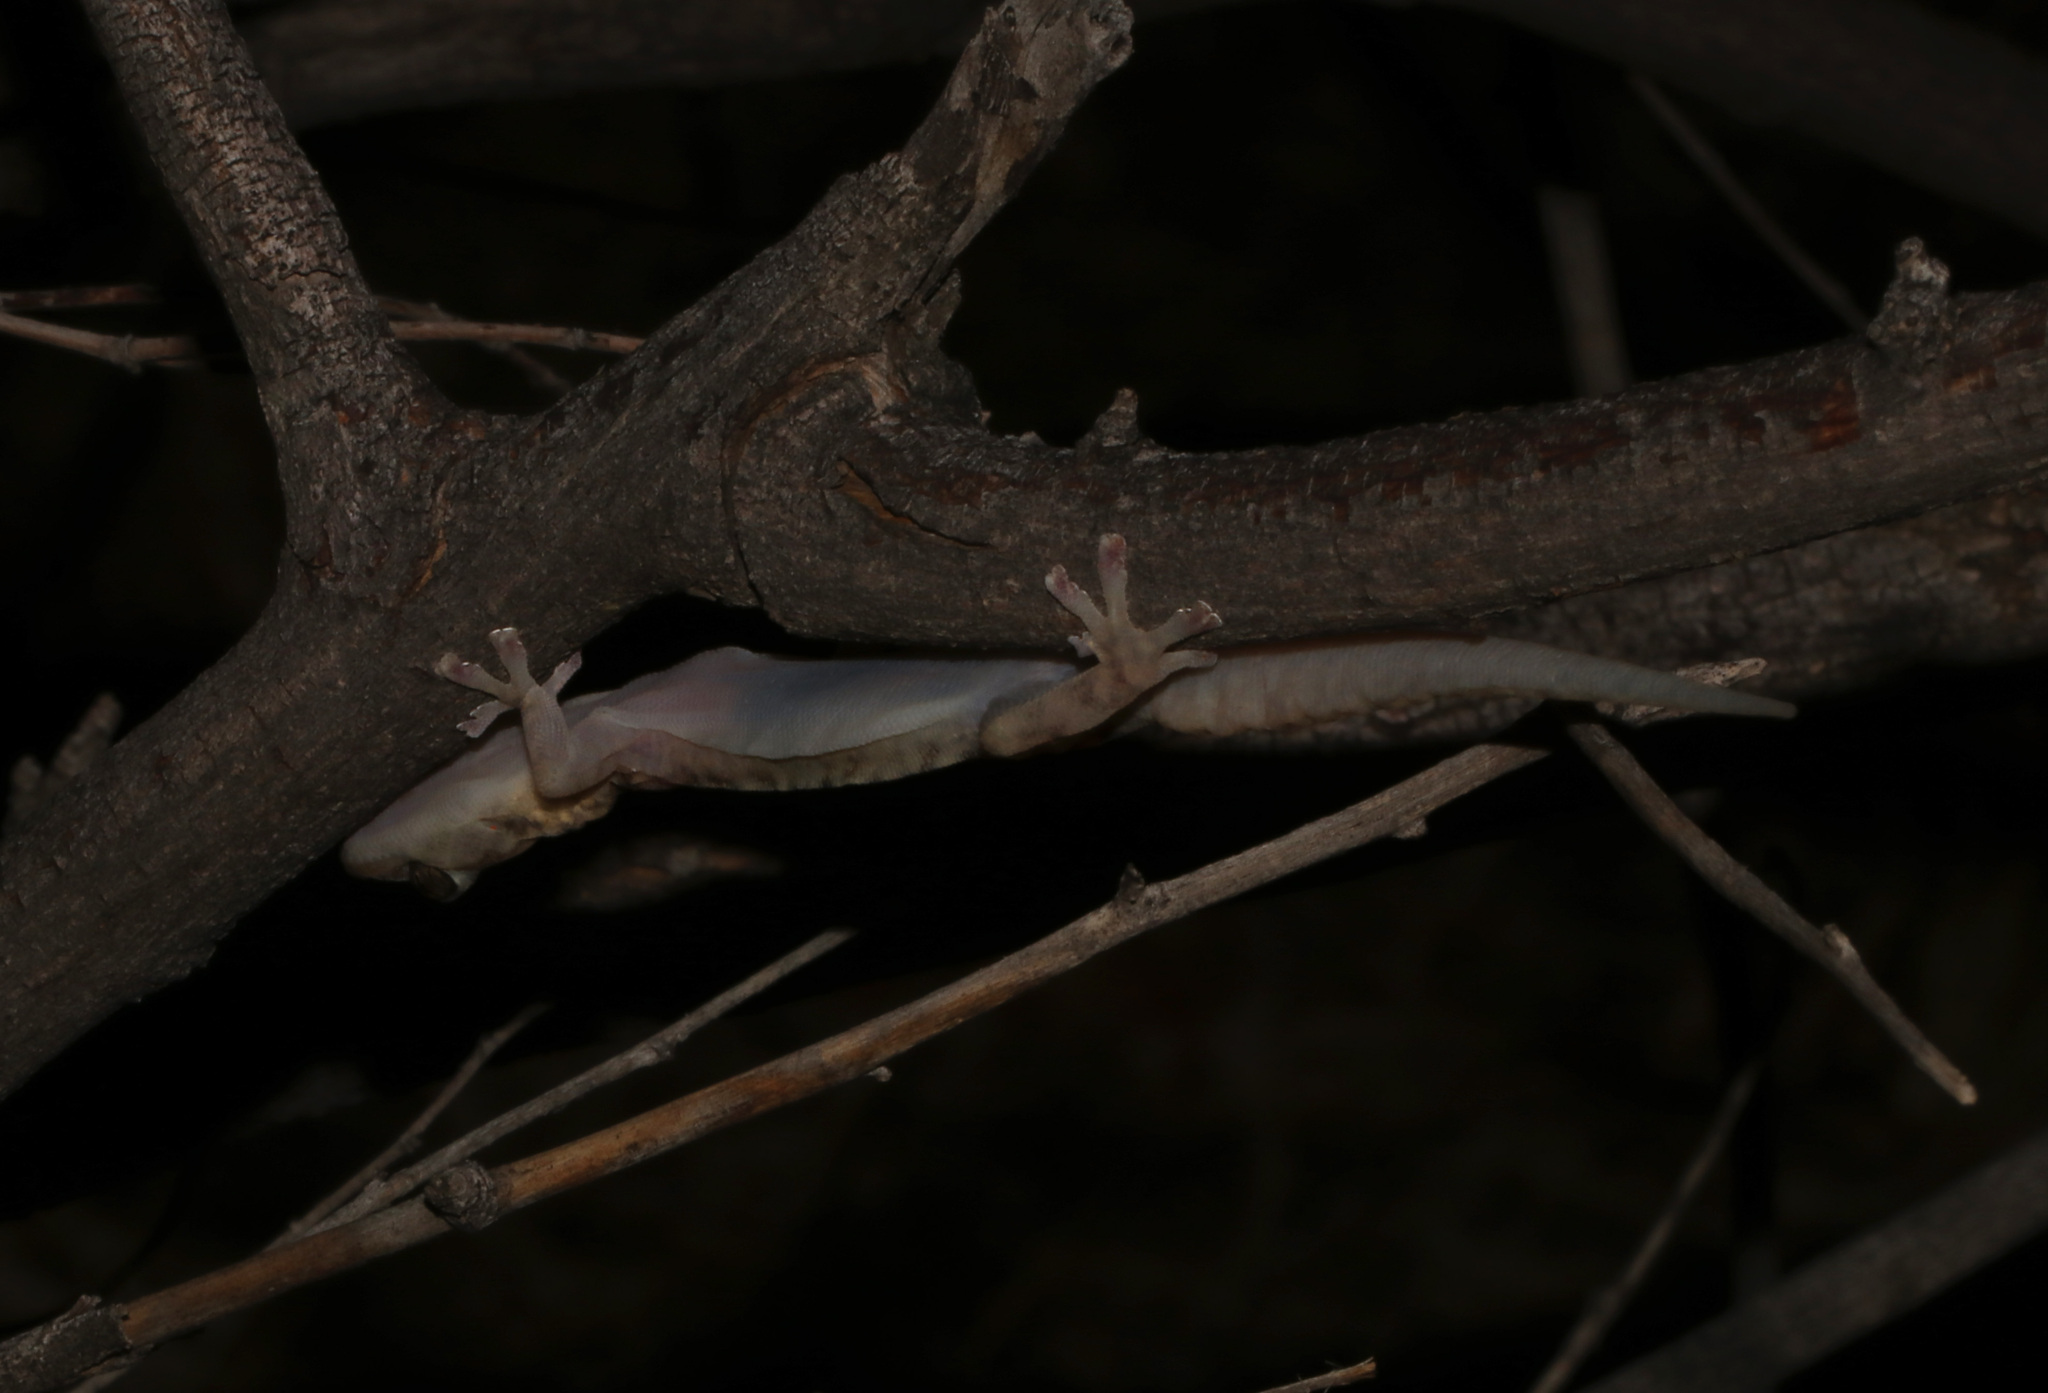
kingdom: Animalia
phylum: Chordata
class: Squamata
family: Gekkonidae
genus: Afroedura
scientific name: Afroedura africana
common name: African rock gecko
